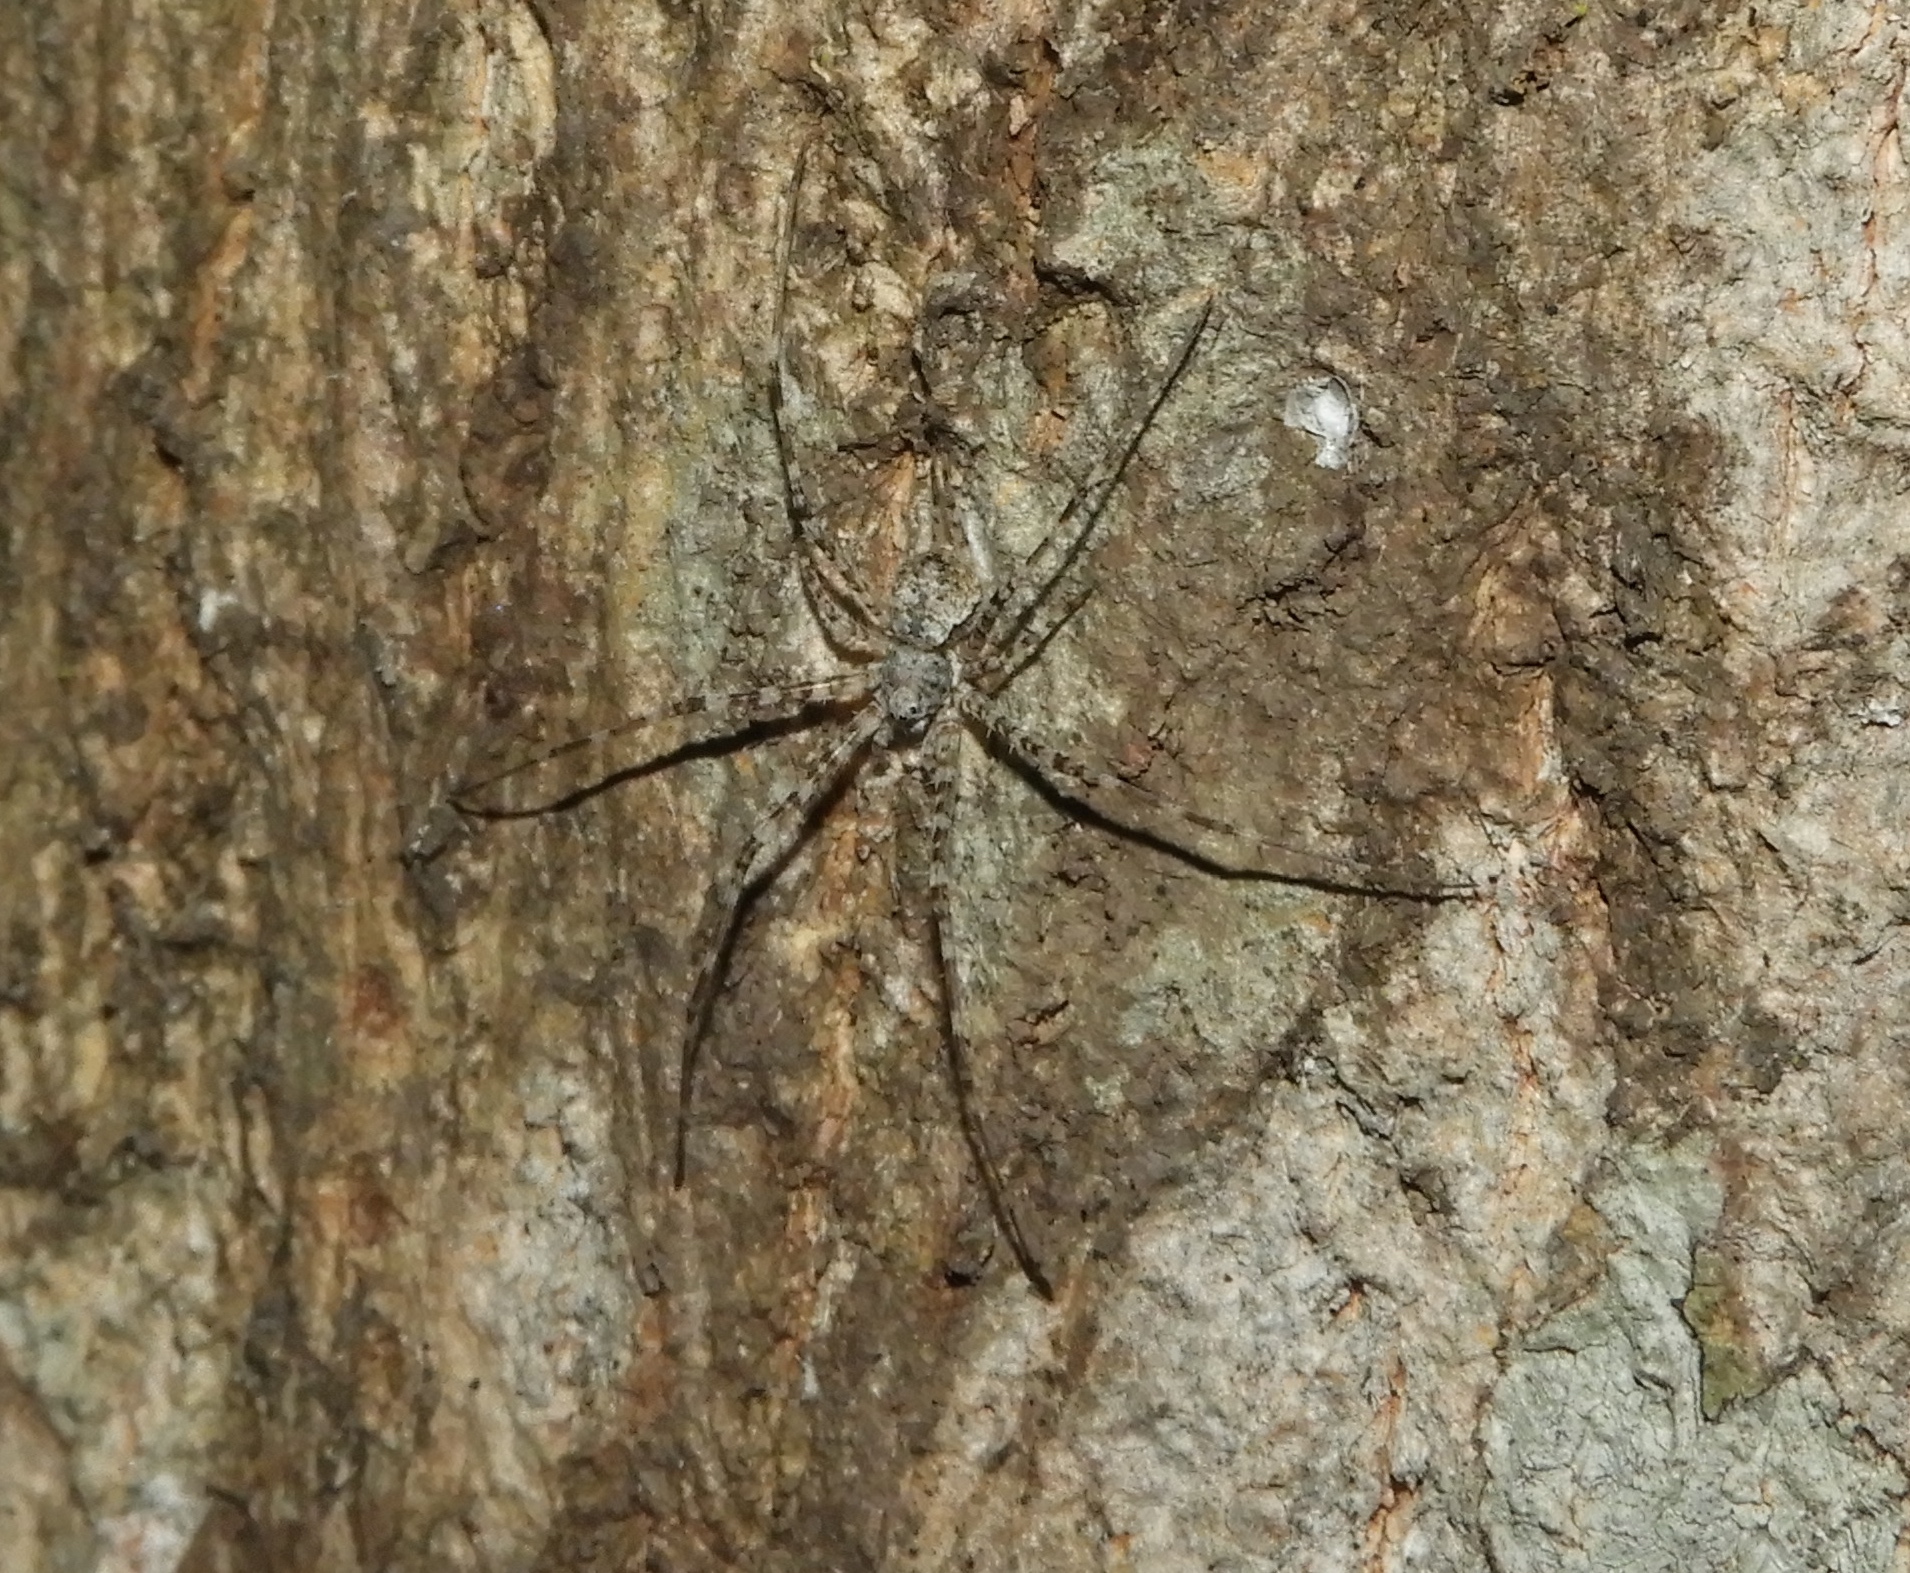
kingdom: Animalia
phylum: Arthropoda
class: Arachnida
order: Araneae
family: Hersiliidae
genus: Neotama
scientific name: Neotama mexicana
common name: Tree trunk spiders
